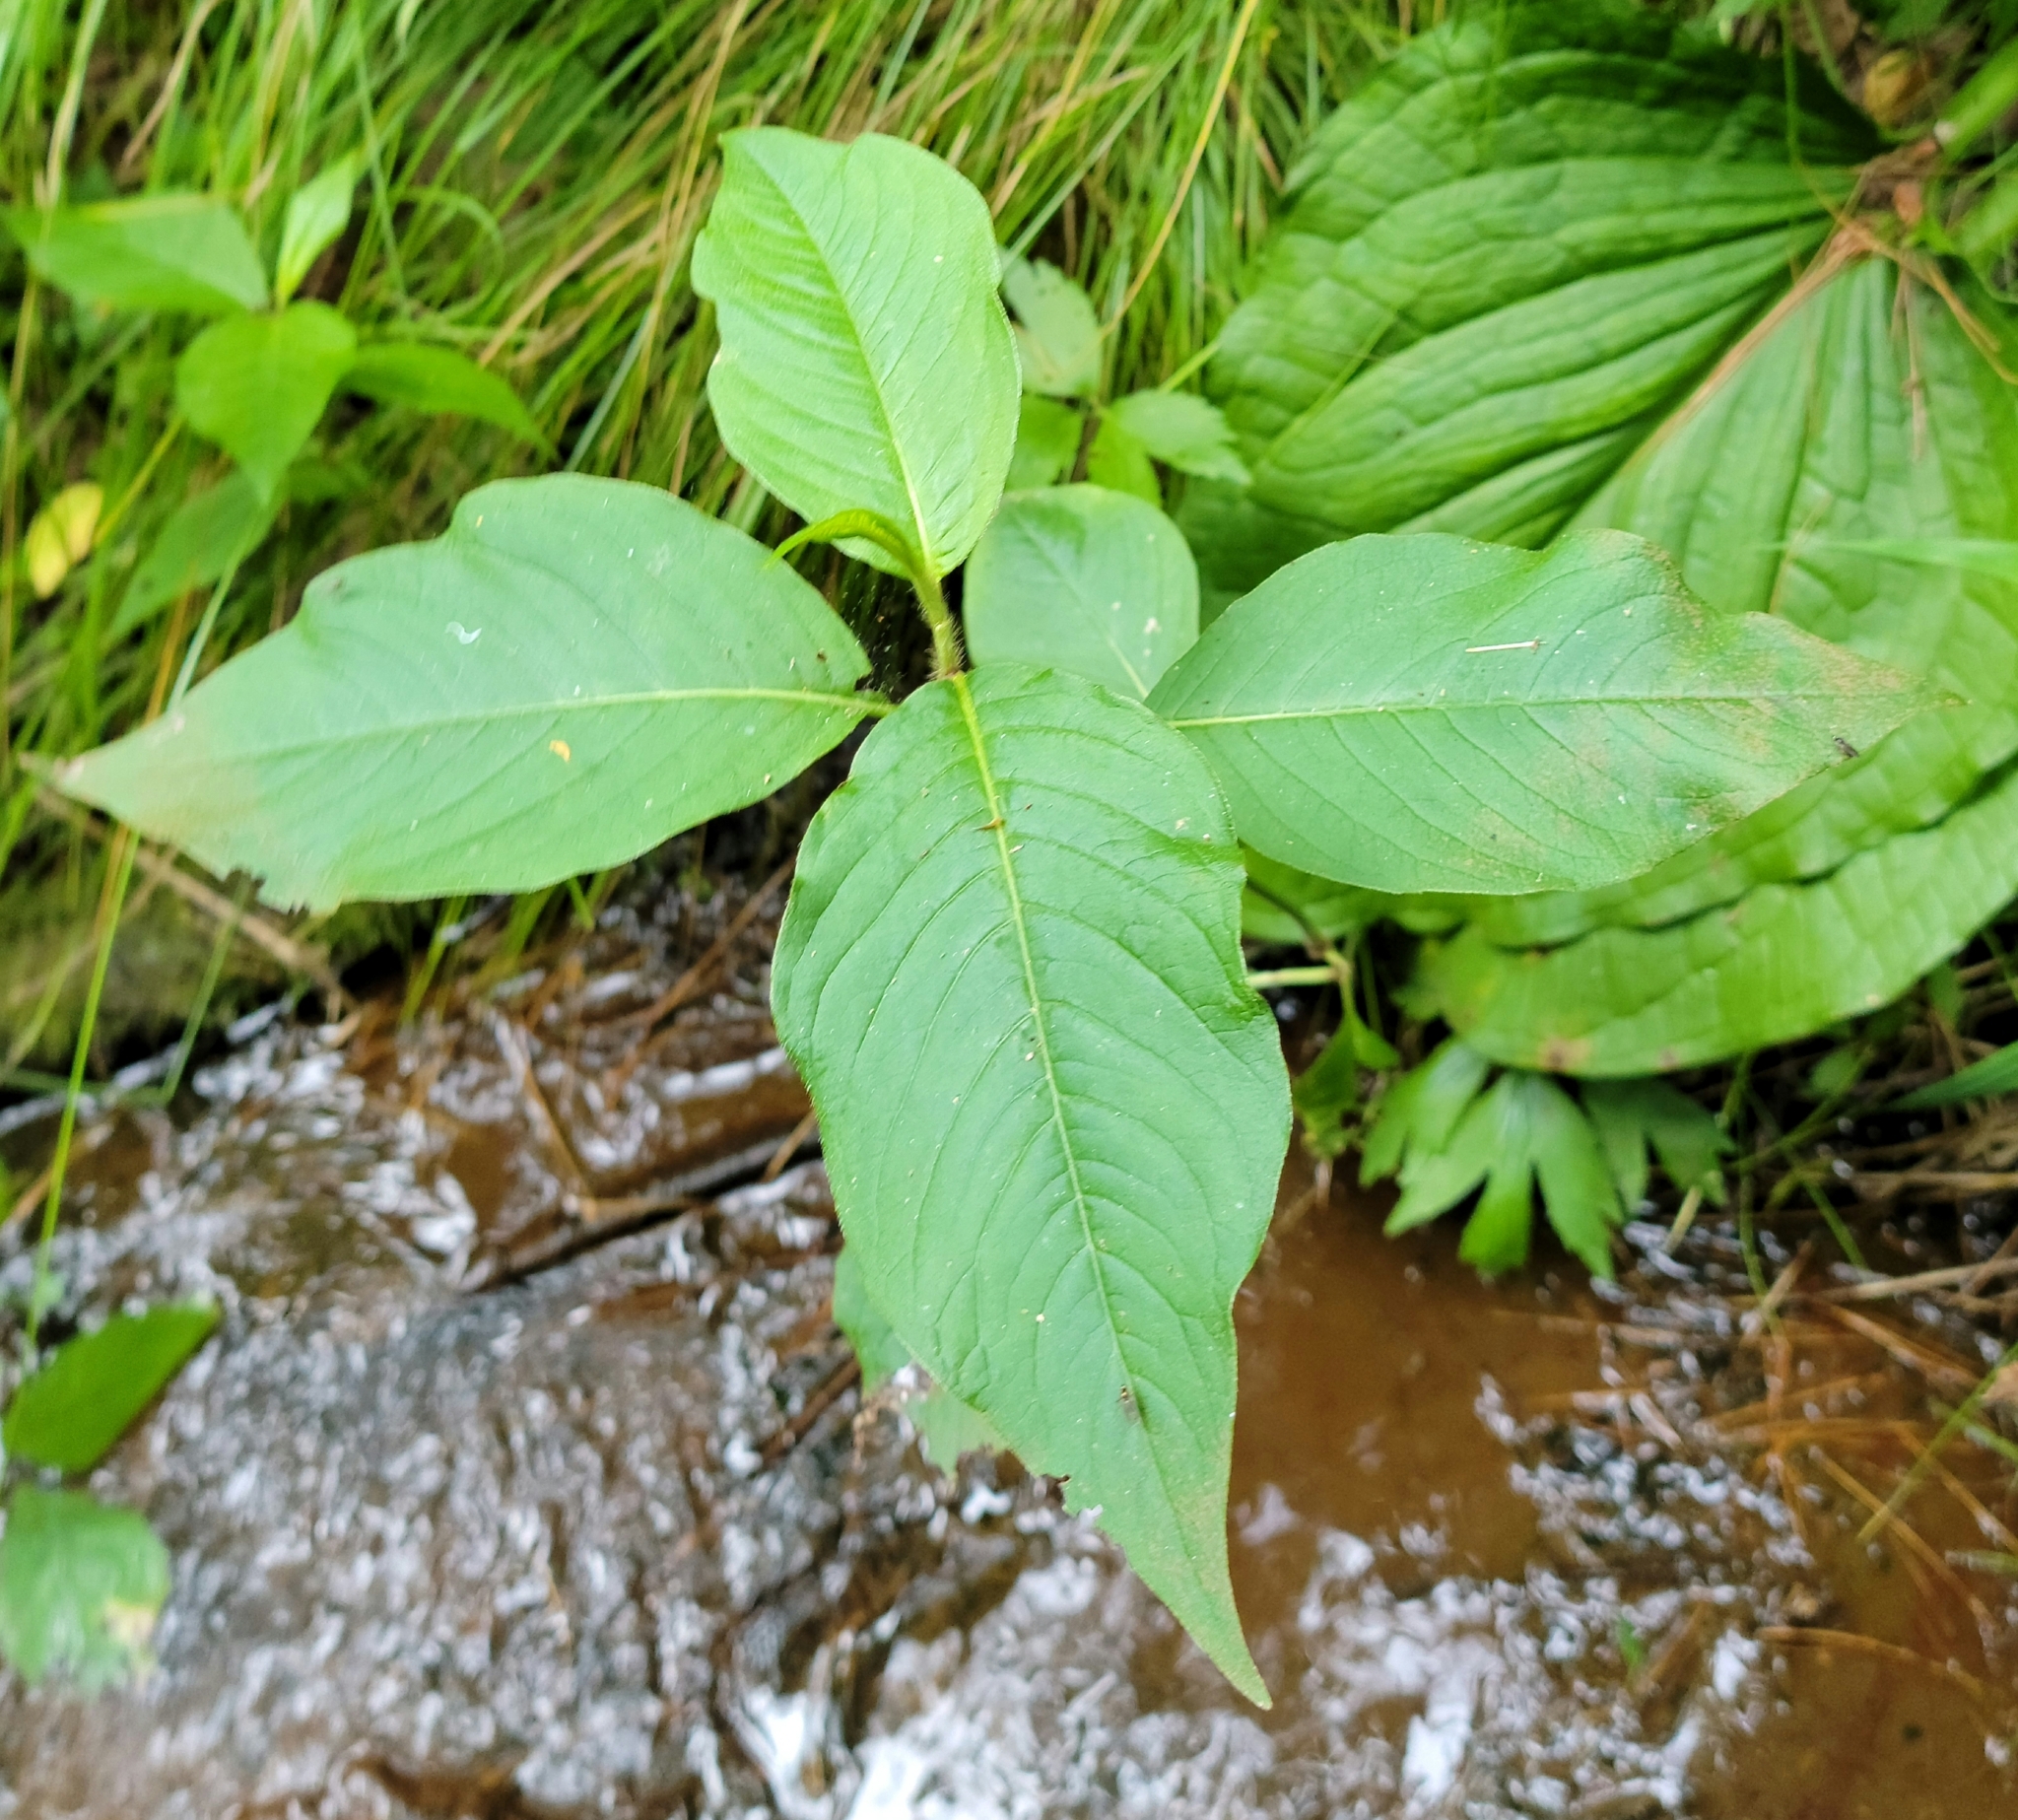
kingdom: Plantae
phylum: Tracheophyta
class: Magnoliopsida
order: Caryophyllales
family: Polygonaceae
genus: Persicaria
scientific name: Persicaria virginiana
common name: Jumpseed
